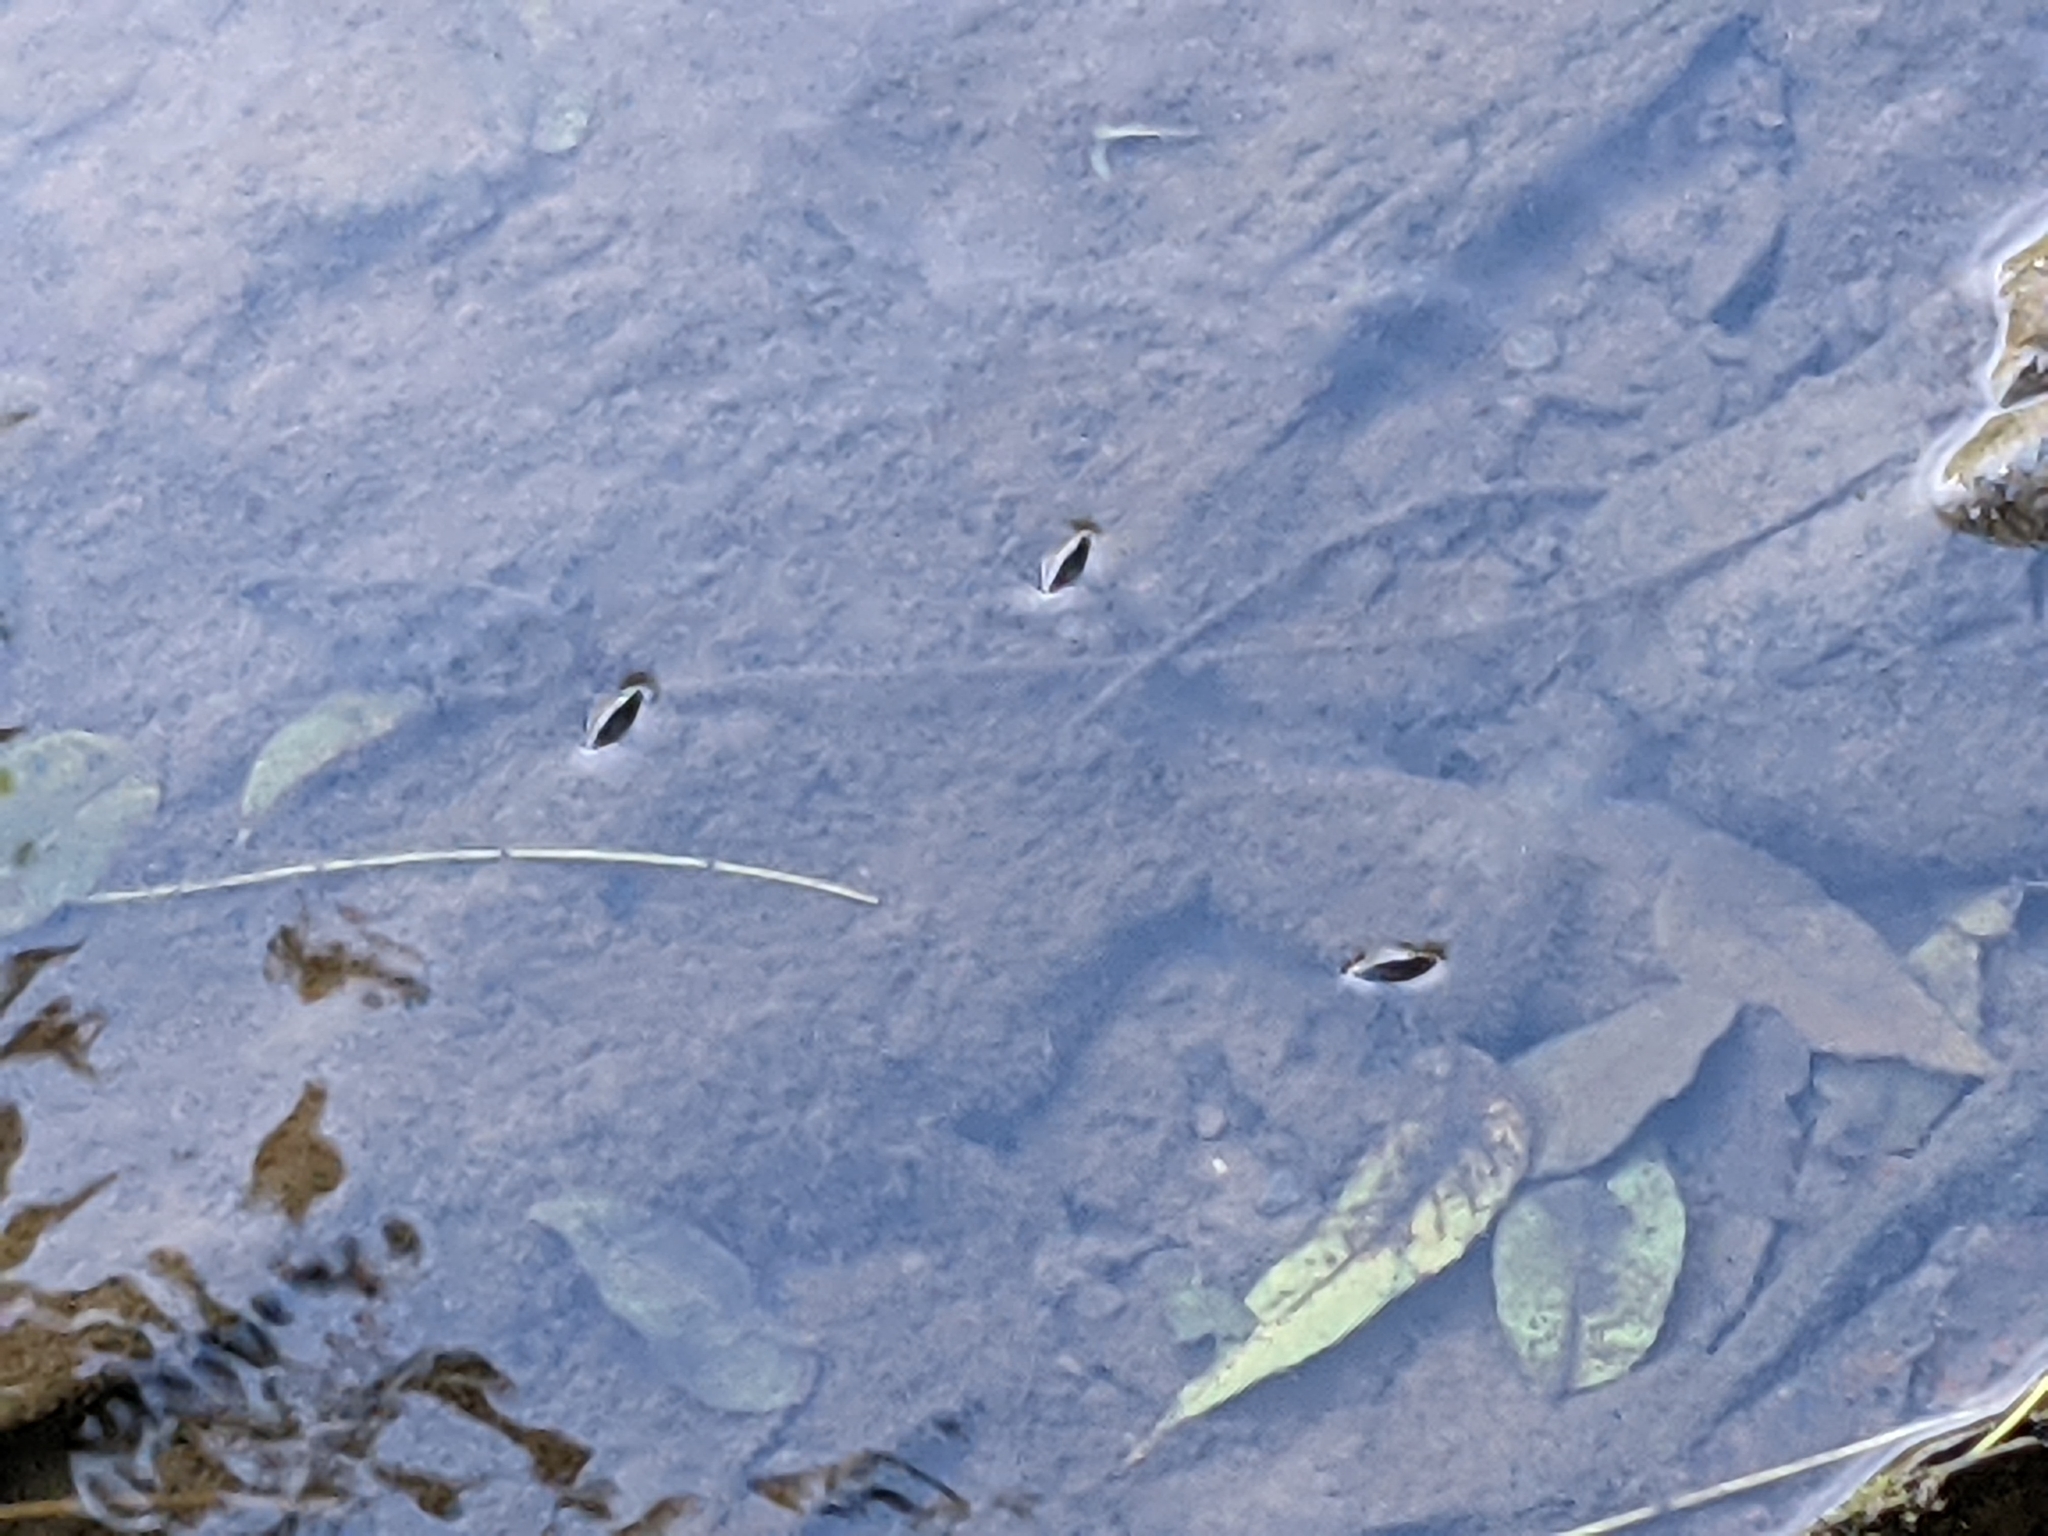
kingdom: Animalia
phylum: Arthropoda
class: Insecta
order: Coleoptera
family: Gyrinidae
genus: Dineutus
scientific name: Dineutus
